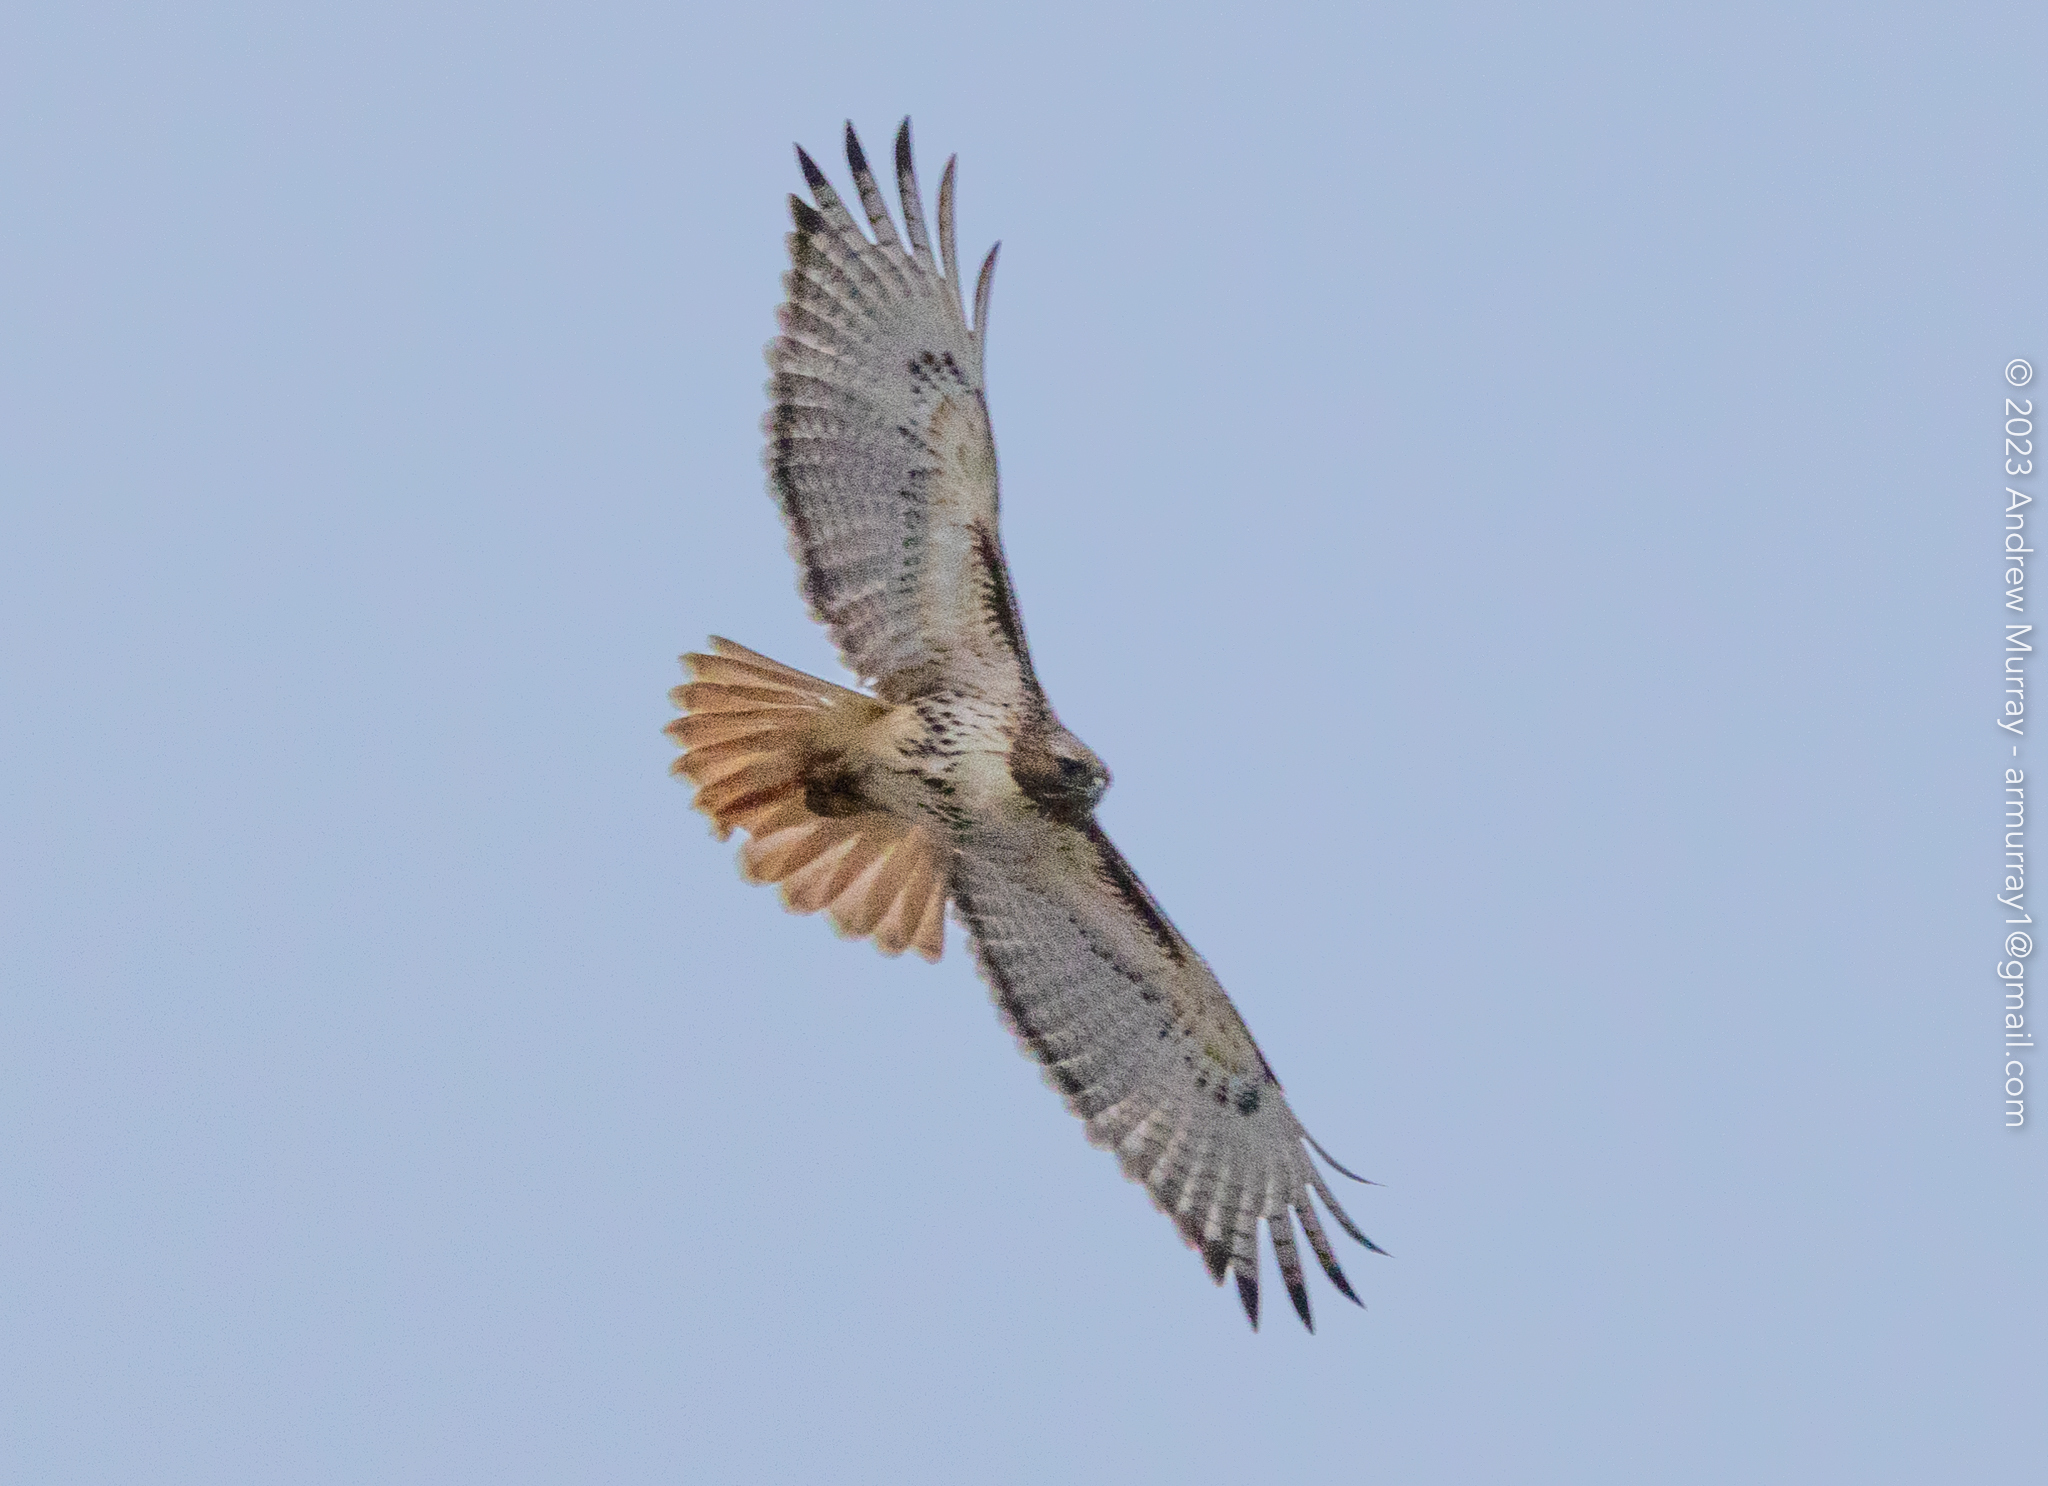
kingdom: Animalia
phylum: Chordata
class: Aves
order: Accipitriformes
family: Accipitridae
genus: Buteo
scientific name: Buteo jamaicensis
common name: Red-tailed hawk
